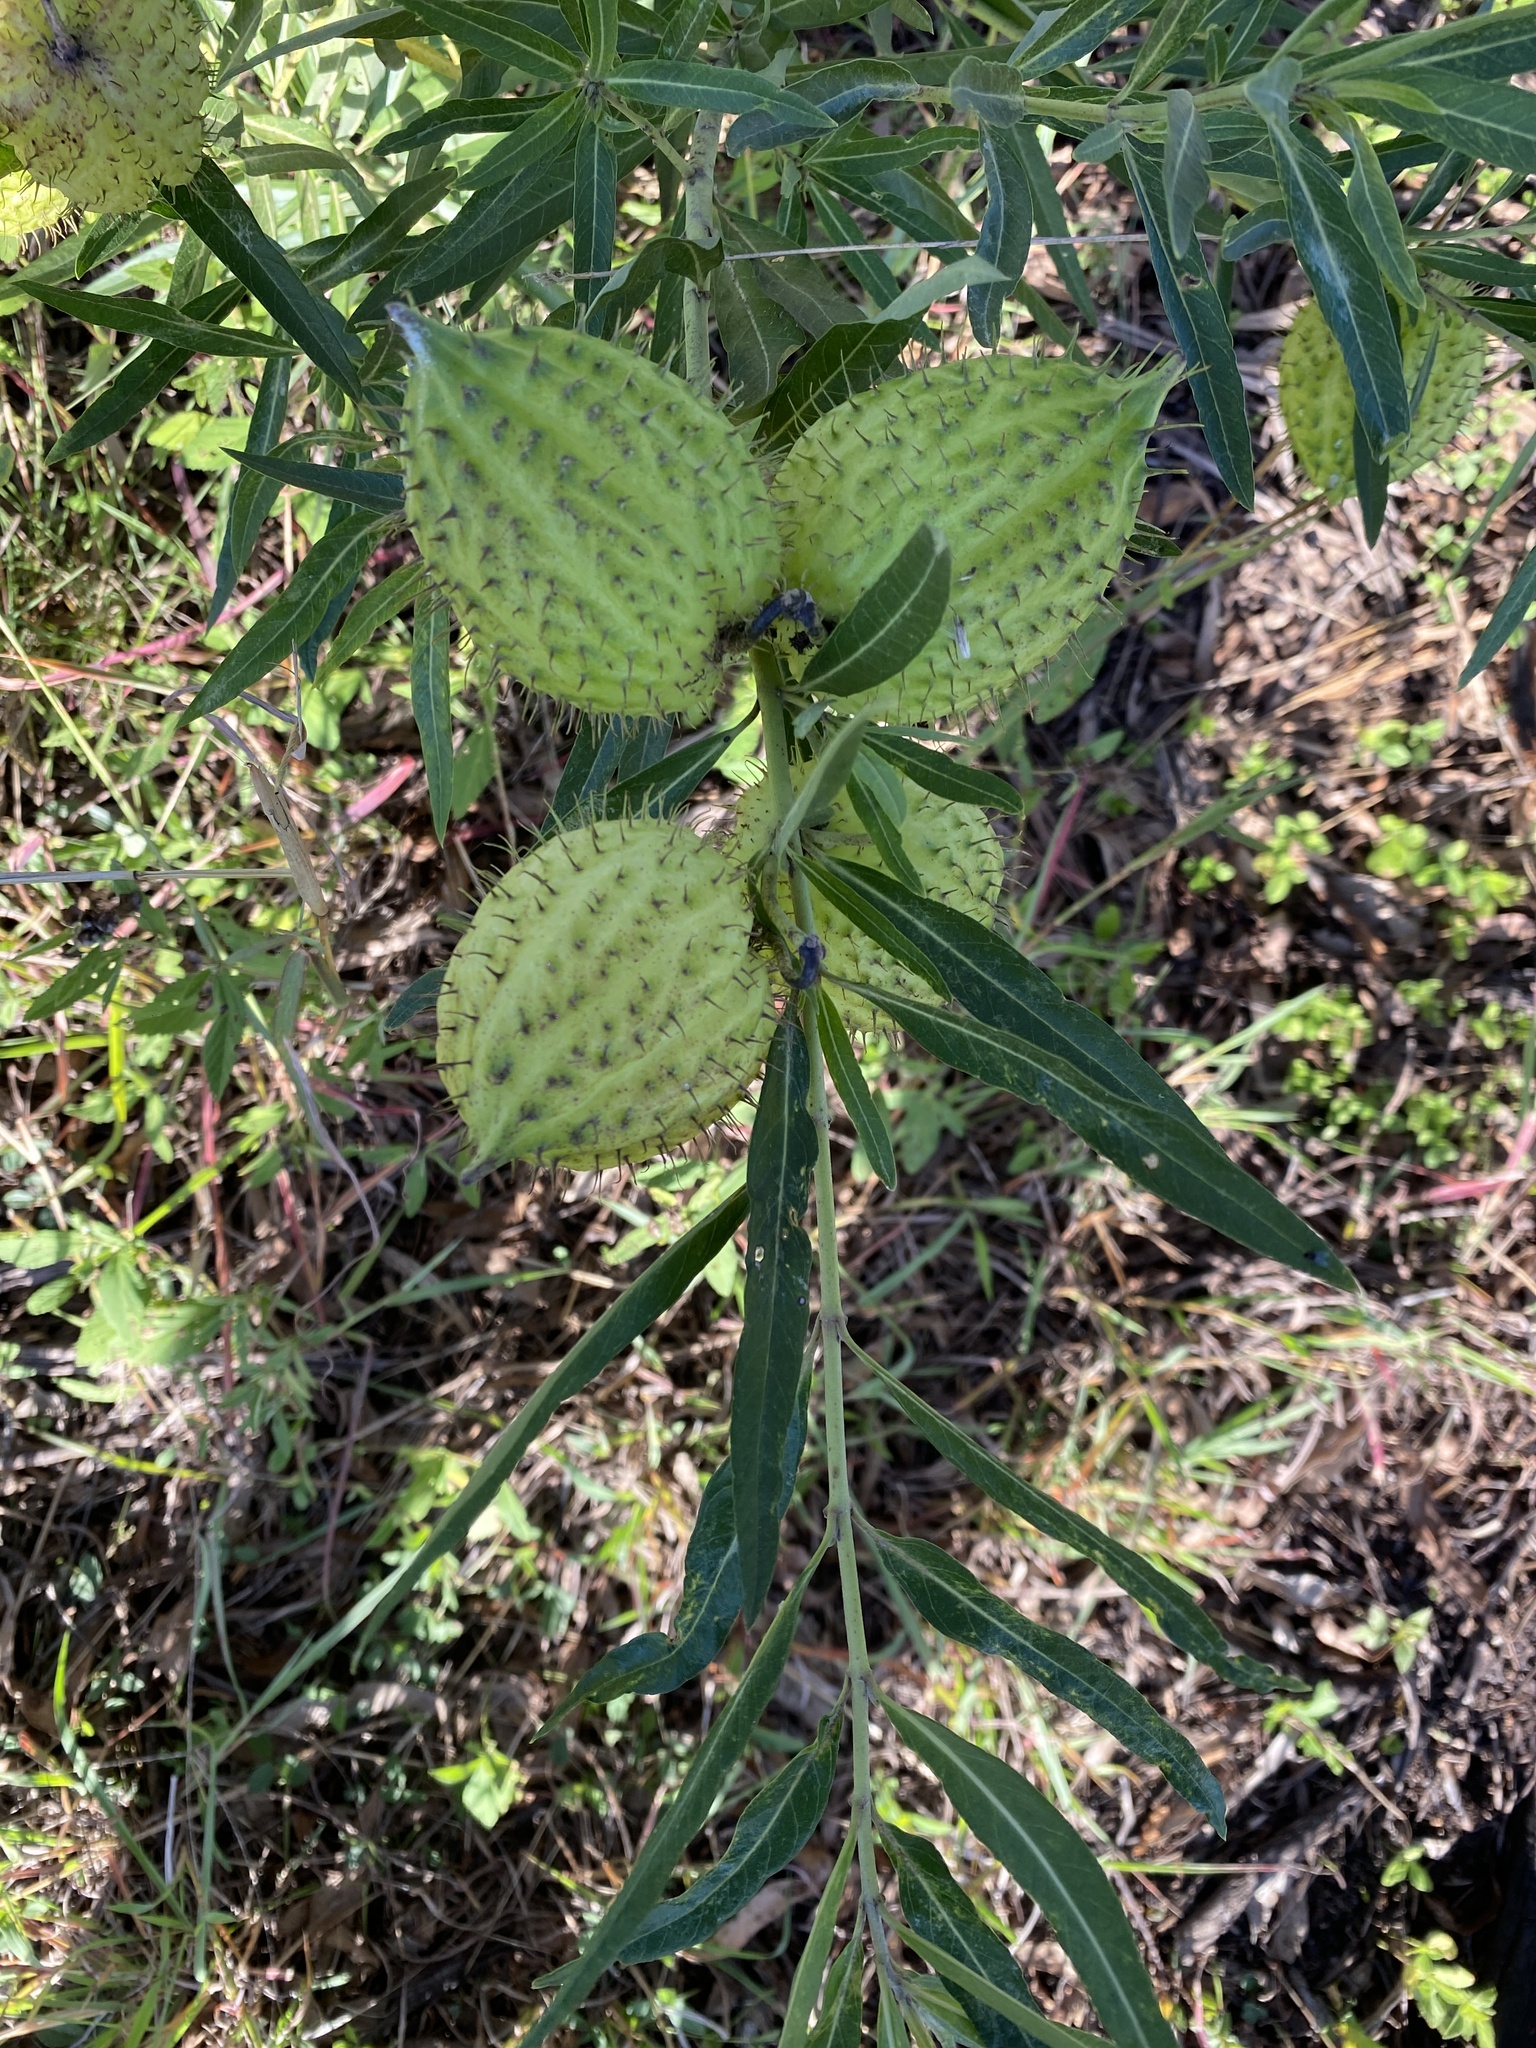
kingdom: Plantae
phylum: Tracheophyta
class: Magnoliopsida
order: Gentianales
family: Apocynaceae
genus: Gomphocarpus
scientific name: Gomphocarpus physocarpus
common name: Balloon cotton bush
